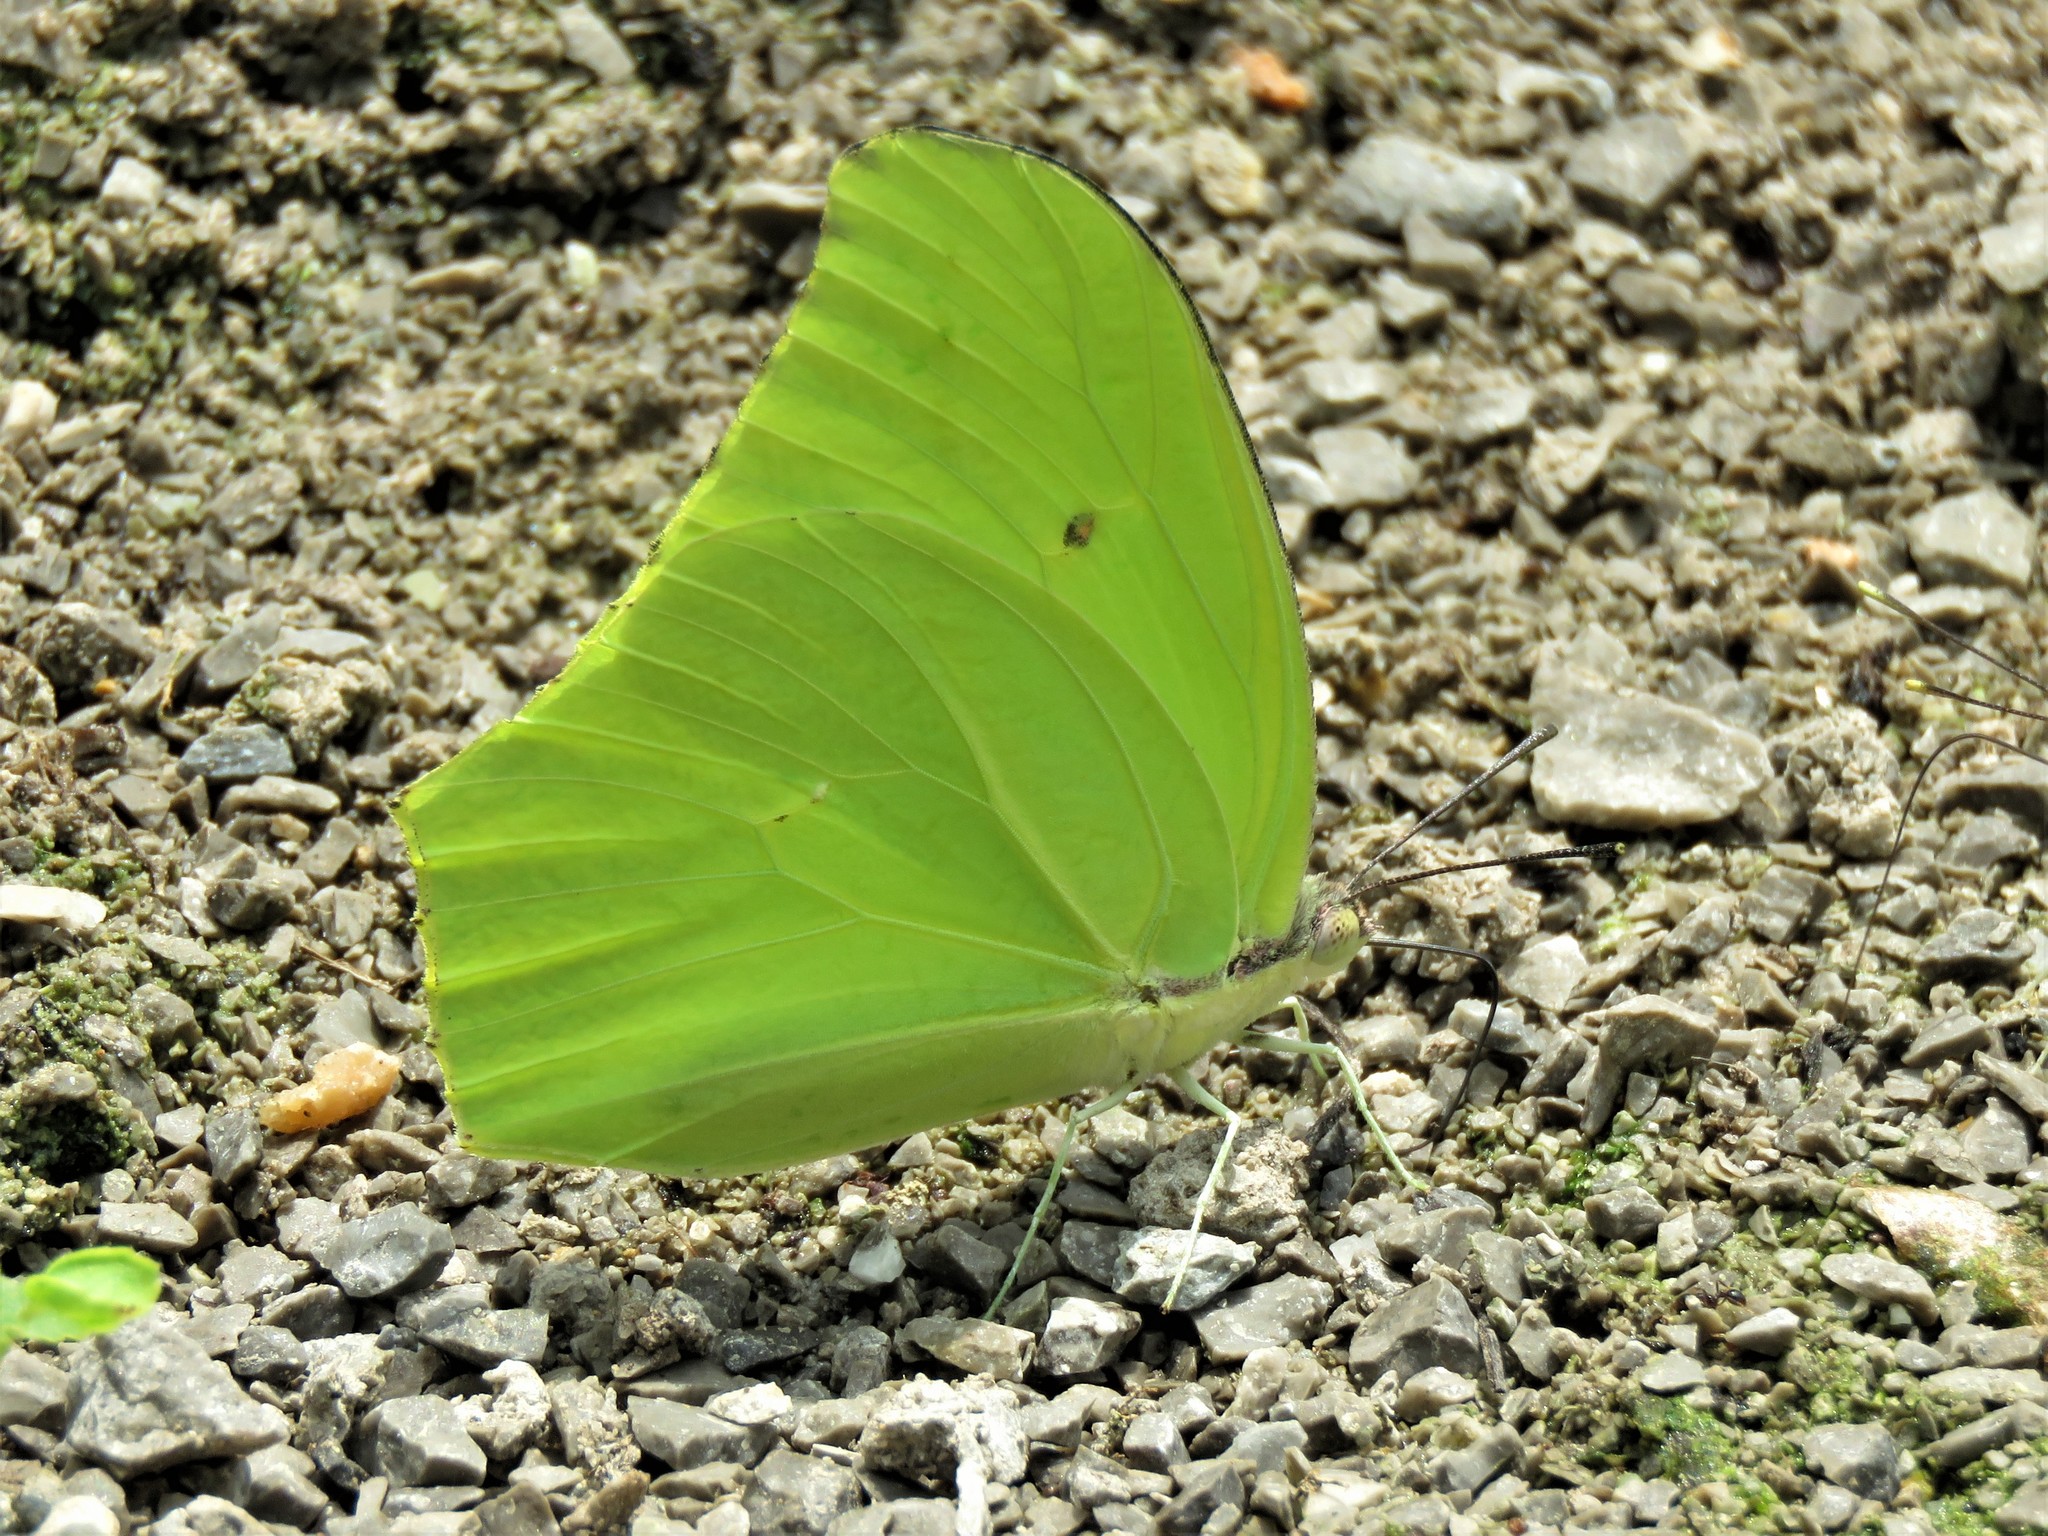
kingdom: Animalia
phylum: Arthropoda
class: Insecta
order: Lepidoptera
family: Pieridae
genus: Anteos
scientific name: Anteos maerula
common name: Angled sulphur
